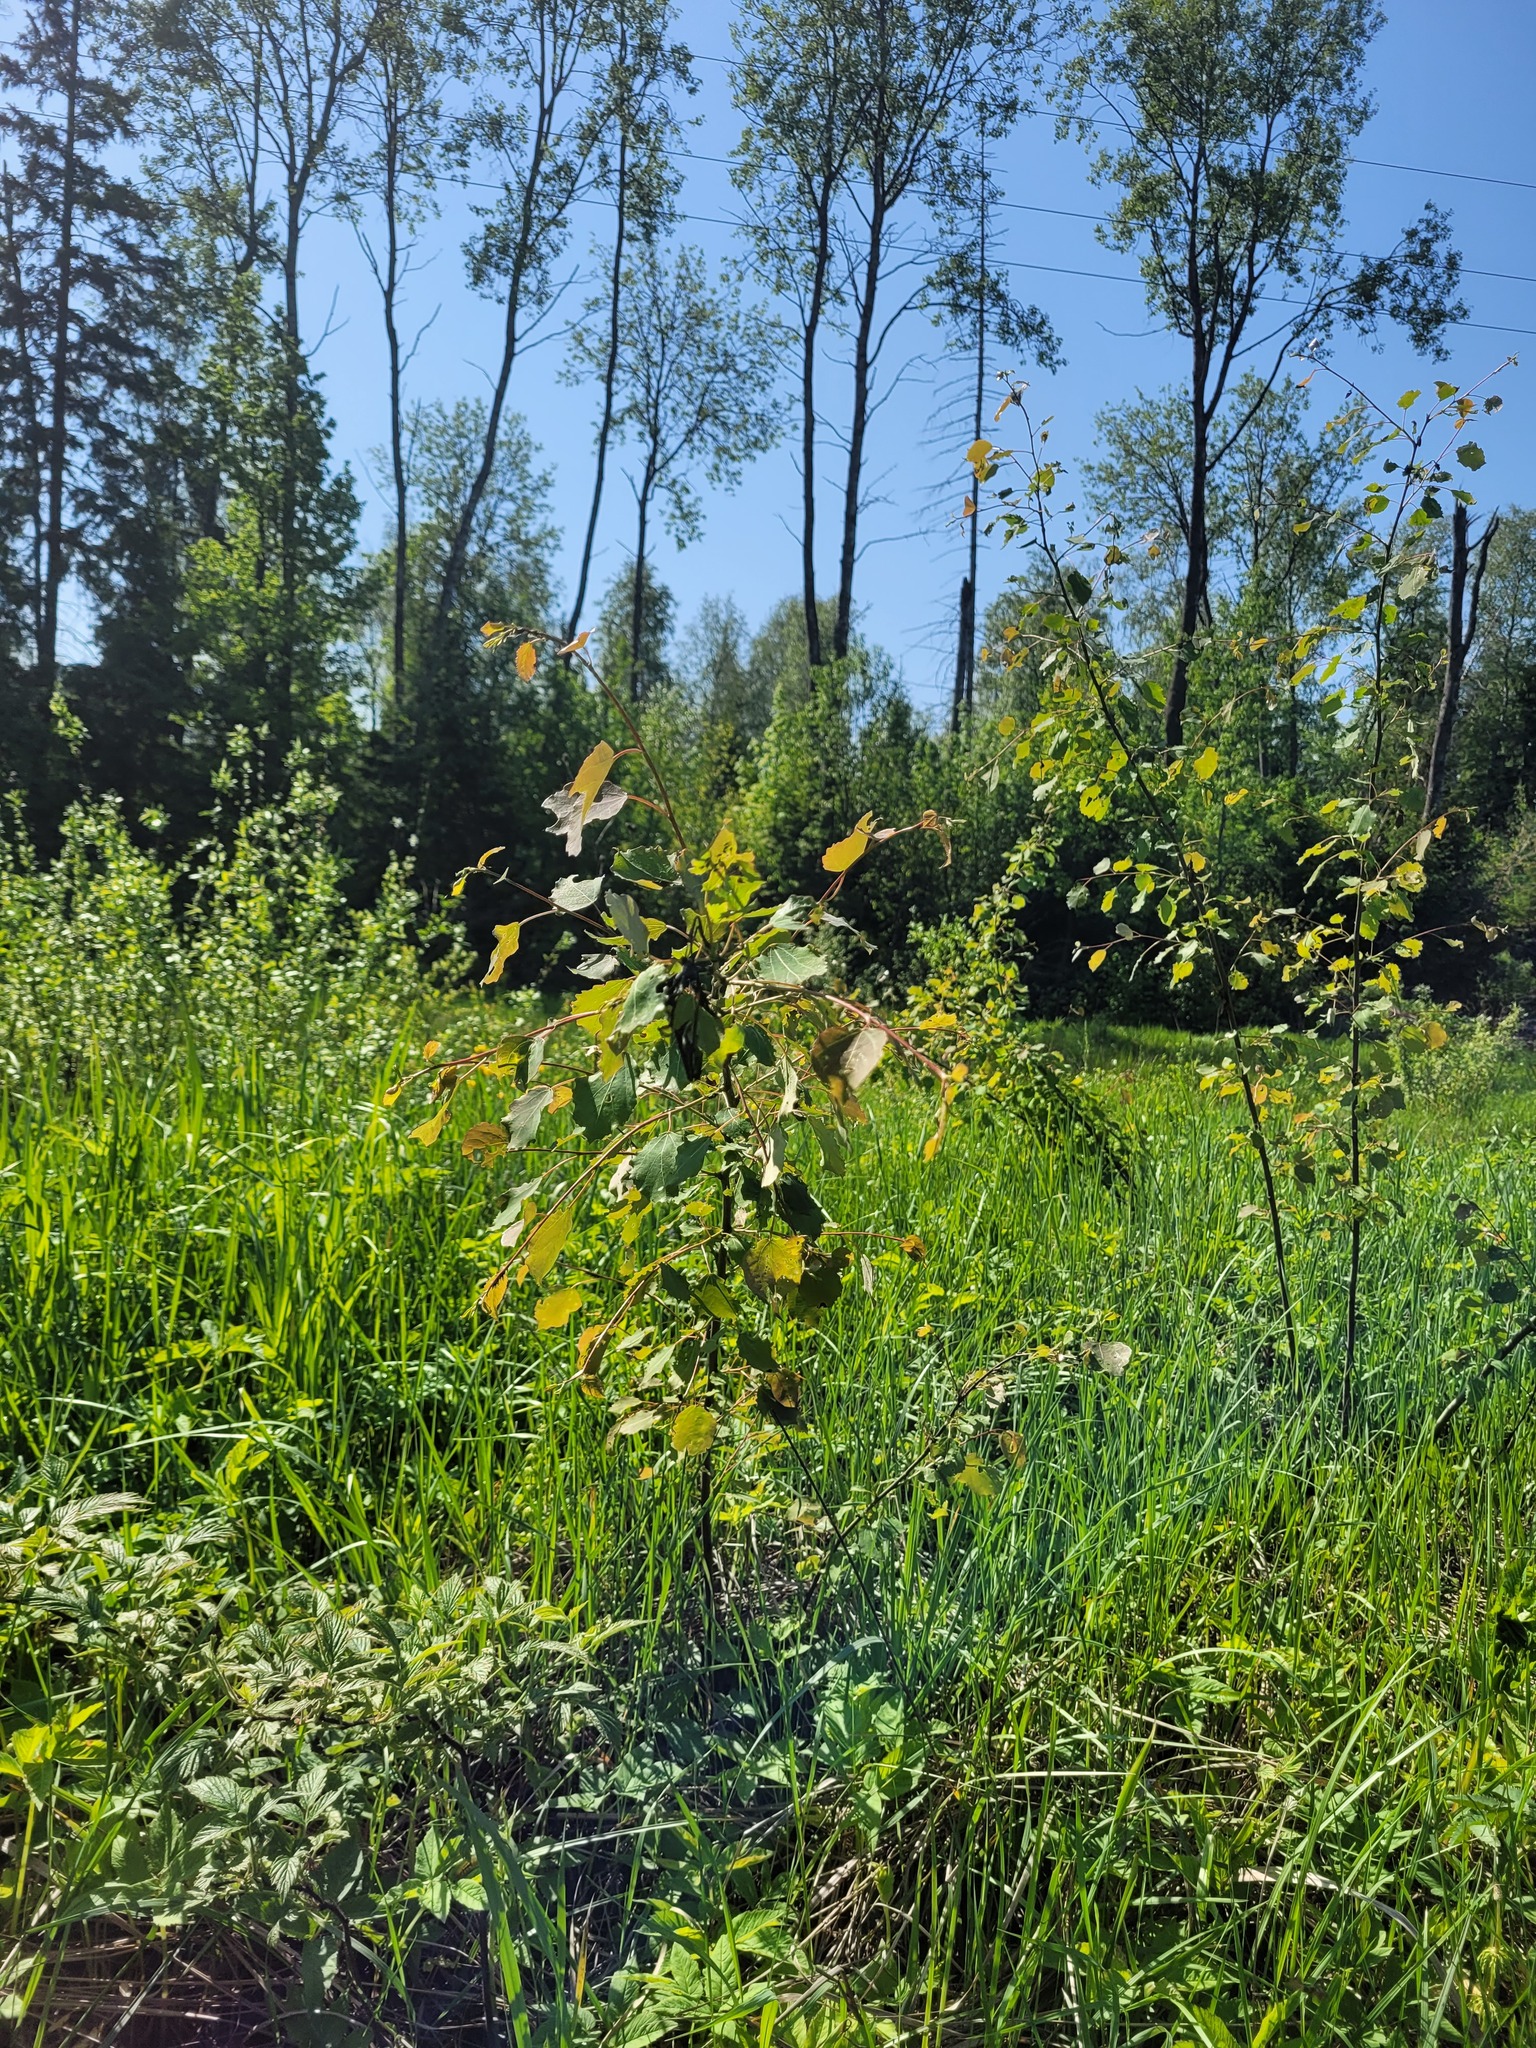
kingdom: Plantae
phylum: Tracheophyta
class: Magnoliopsida
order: Malpighiales
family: Salicaceae
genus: Populus
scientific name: Populus tremula
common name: European aspen
